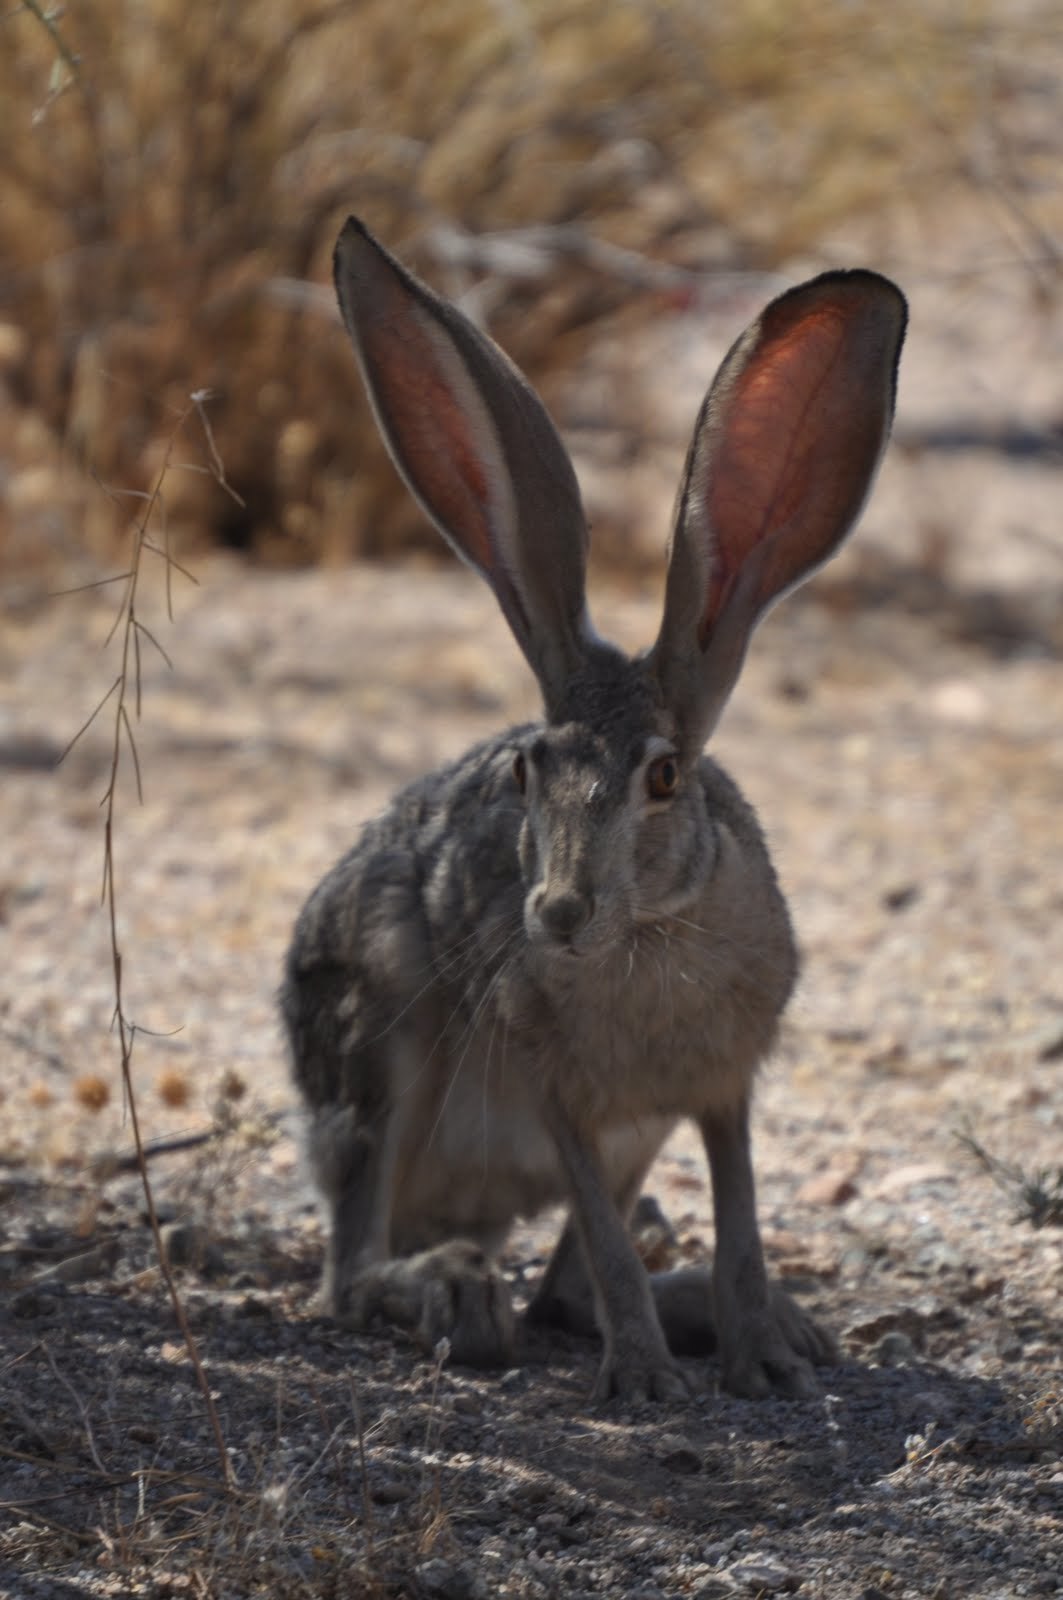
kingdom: Animalia
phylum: Chordata
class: Mammalia
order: Lagomorpha
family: Leporidae
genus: Lepus
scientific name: Lepus californicus
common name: Black-tailed jackrabbit
